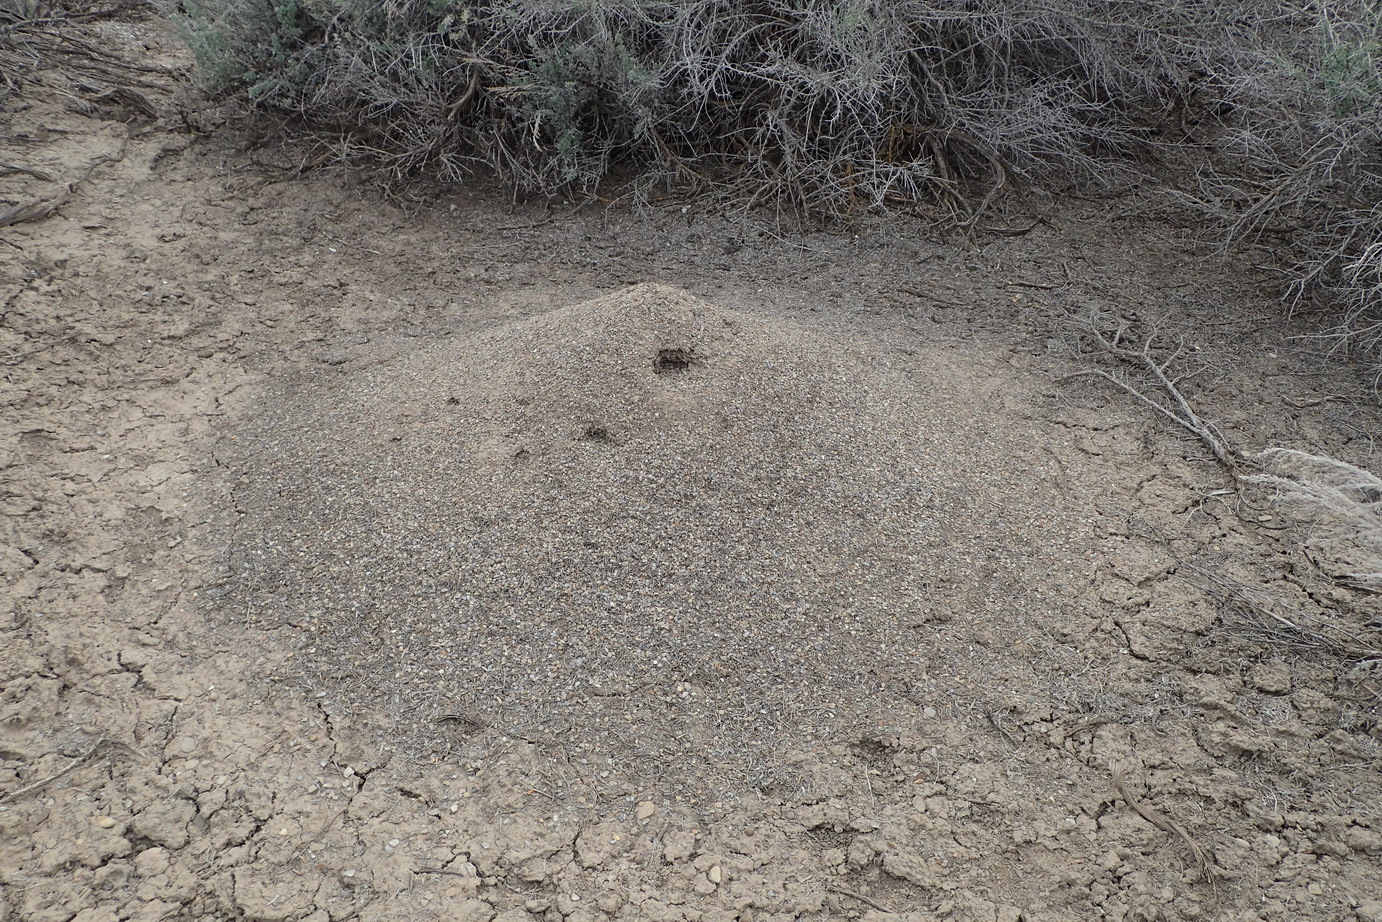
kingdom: Animalia
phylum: Arthropoda
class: Insecta
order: Hymenoptera
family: Formicidae
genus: Pogonomyrmex
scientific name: Pogonomyrmex barbatus
